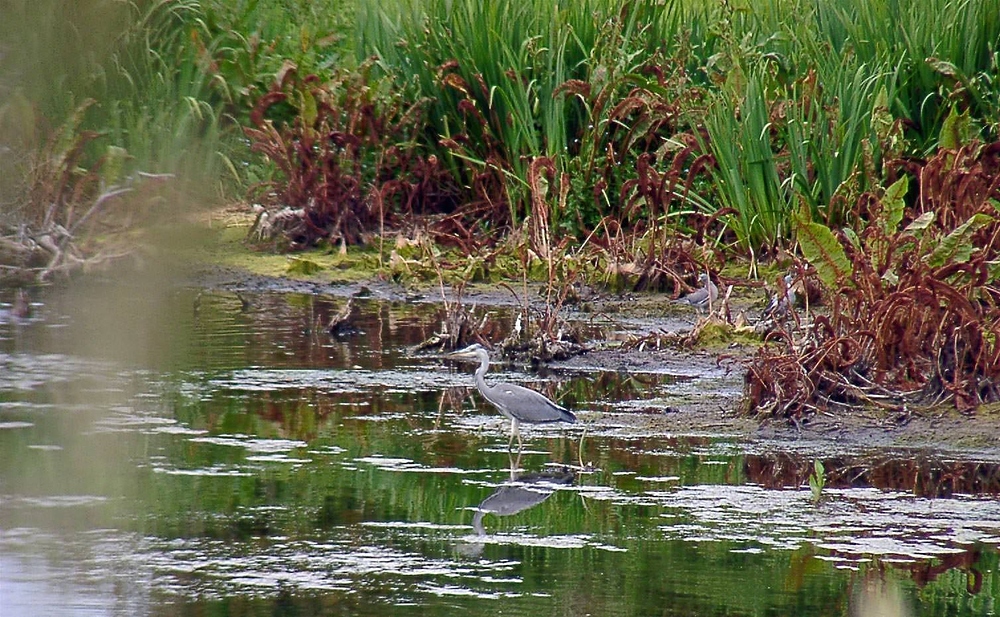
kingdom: Animalia
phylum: Chordata
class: Aves
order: Pelecaniformes
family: Ardeidae
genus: Ardea
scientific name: Ardea cinerea
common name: Grey heron
